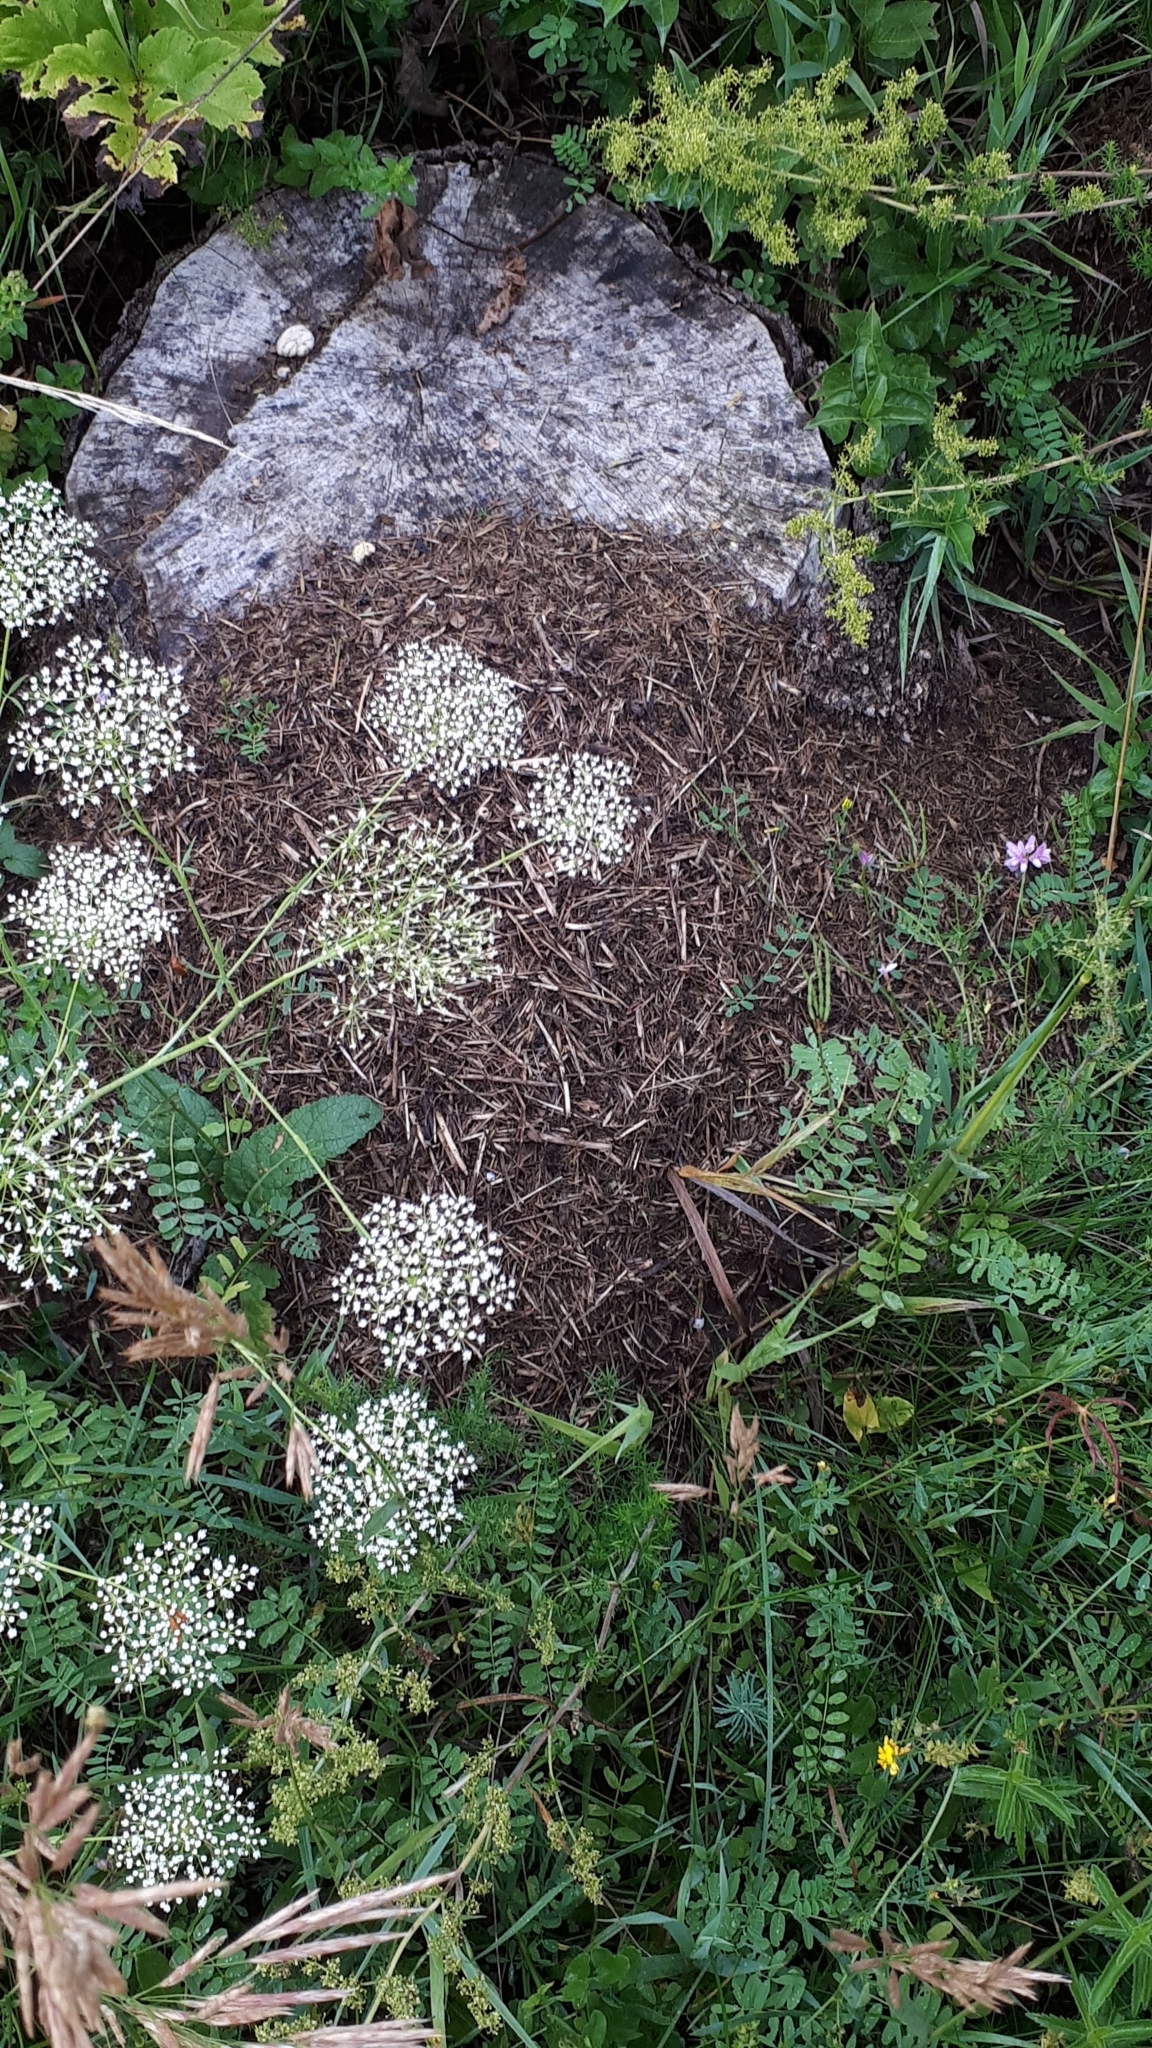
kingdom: Animalia
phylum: Arthropoda
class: Insecta
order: Hymenoptera
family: Formicidae
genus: Formica
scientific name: Formica pratensis
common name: European red wood ant
